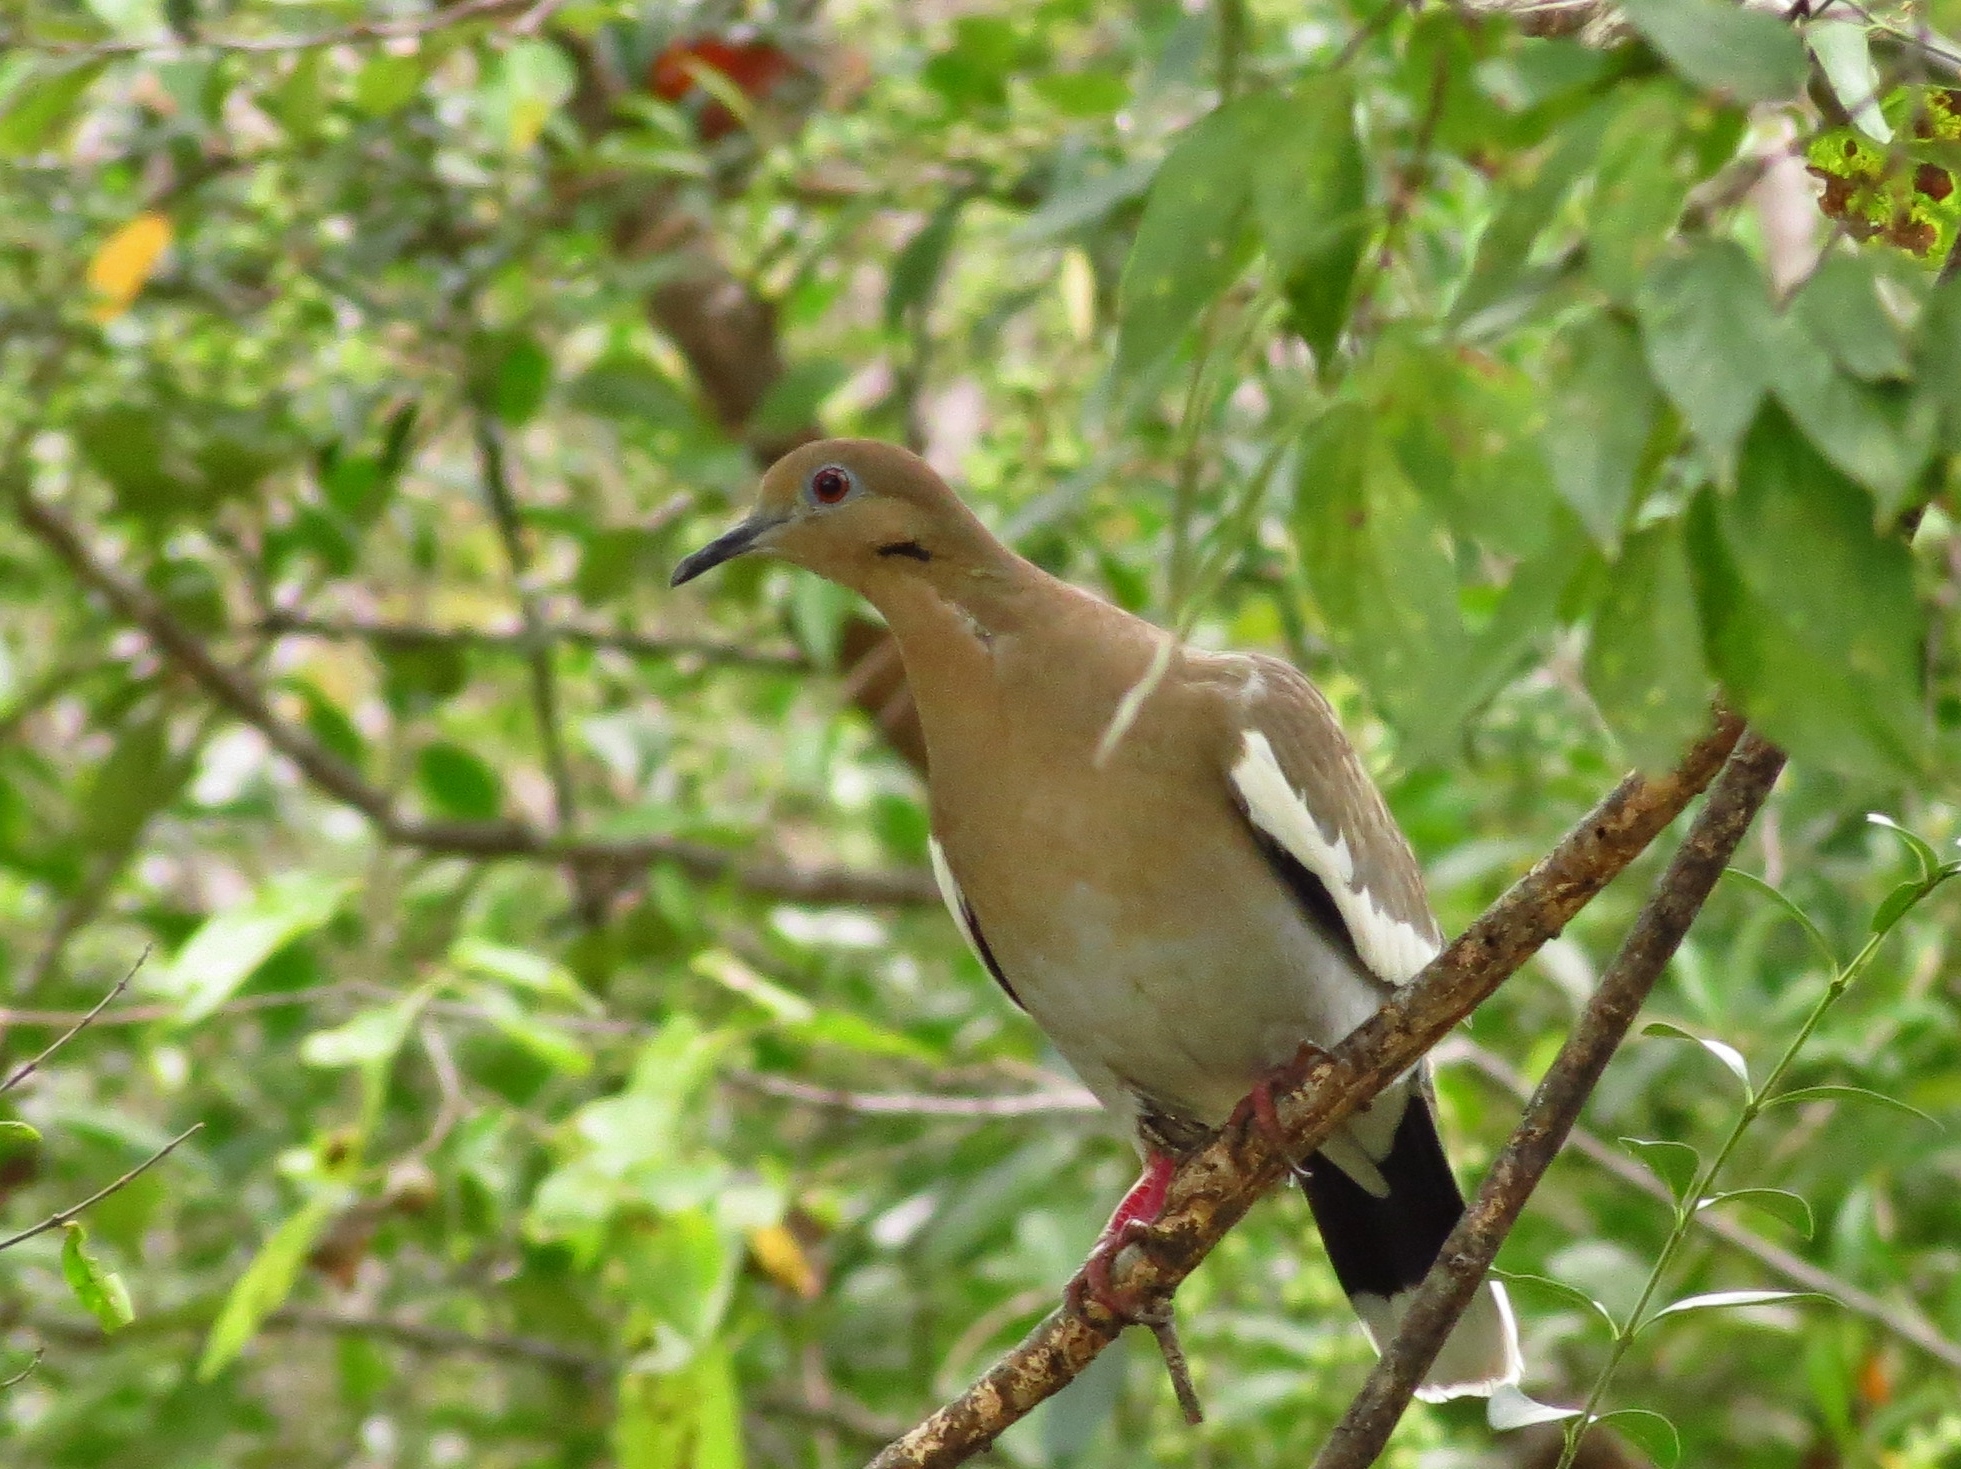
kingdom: Animalia
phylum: Chordata
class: Aves
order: Columbiformes
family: Columbidae
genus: Zenaida
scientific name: Zenaida asiatica
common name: White-winged dove
